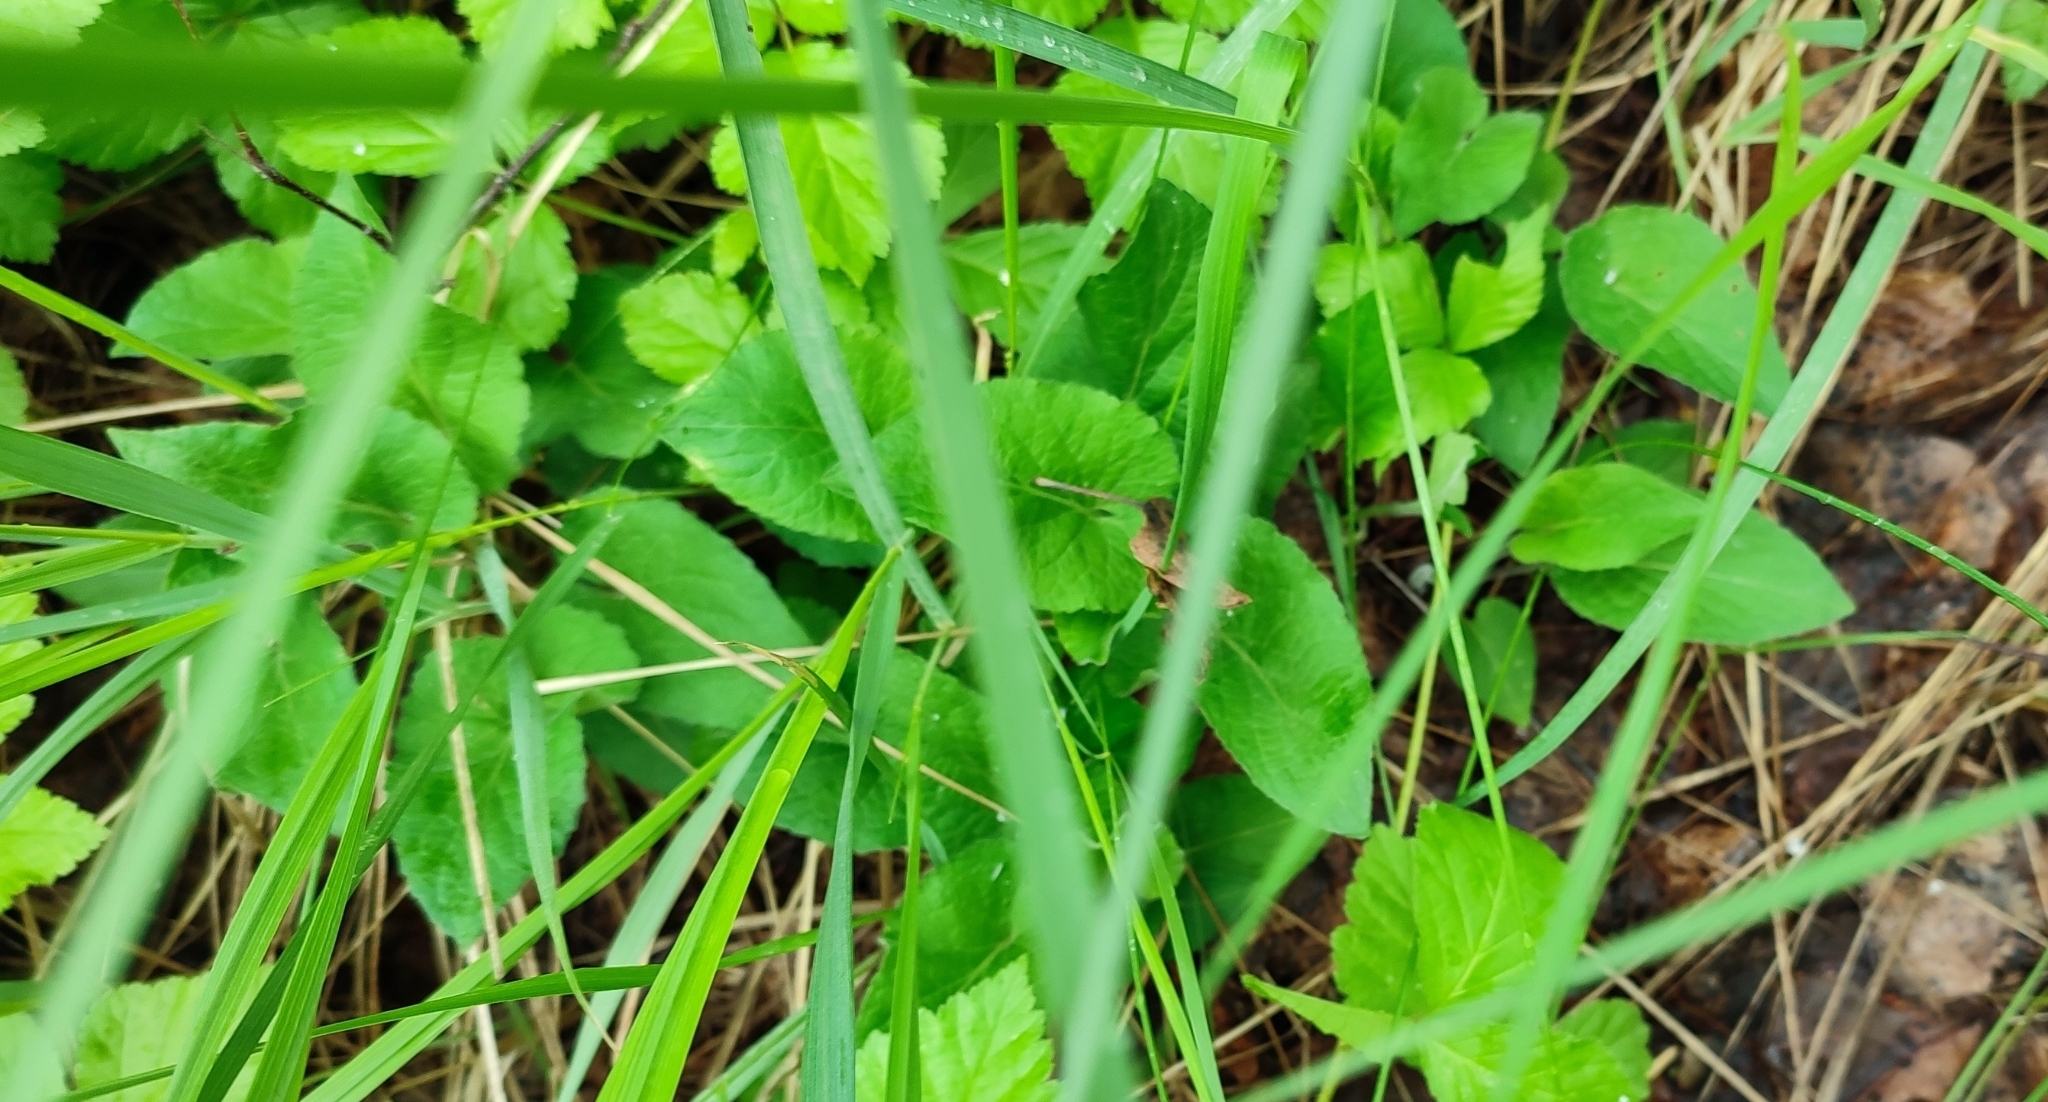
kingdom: Plantae
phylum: Tracheophyta
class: Magnoliopsida
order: Malpighiales
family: Violaceae
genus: Viola
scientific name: Viola hirta
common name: Hairy violet
